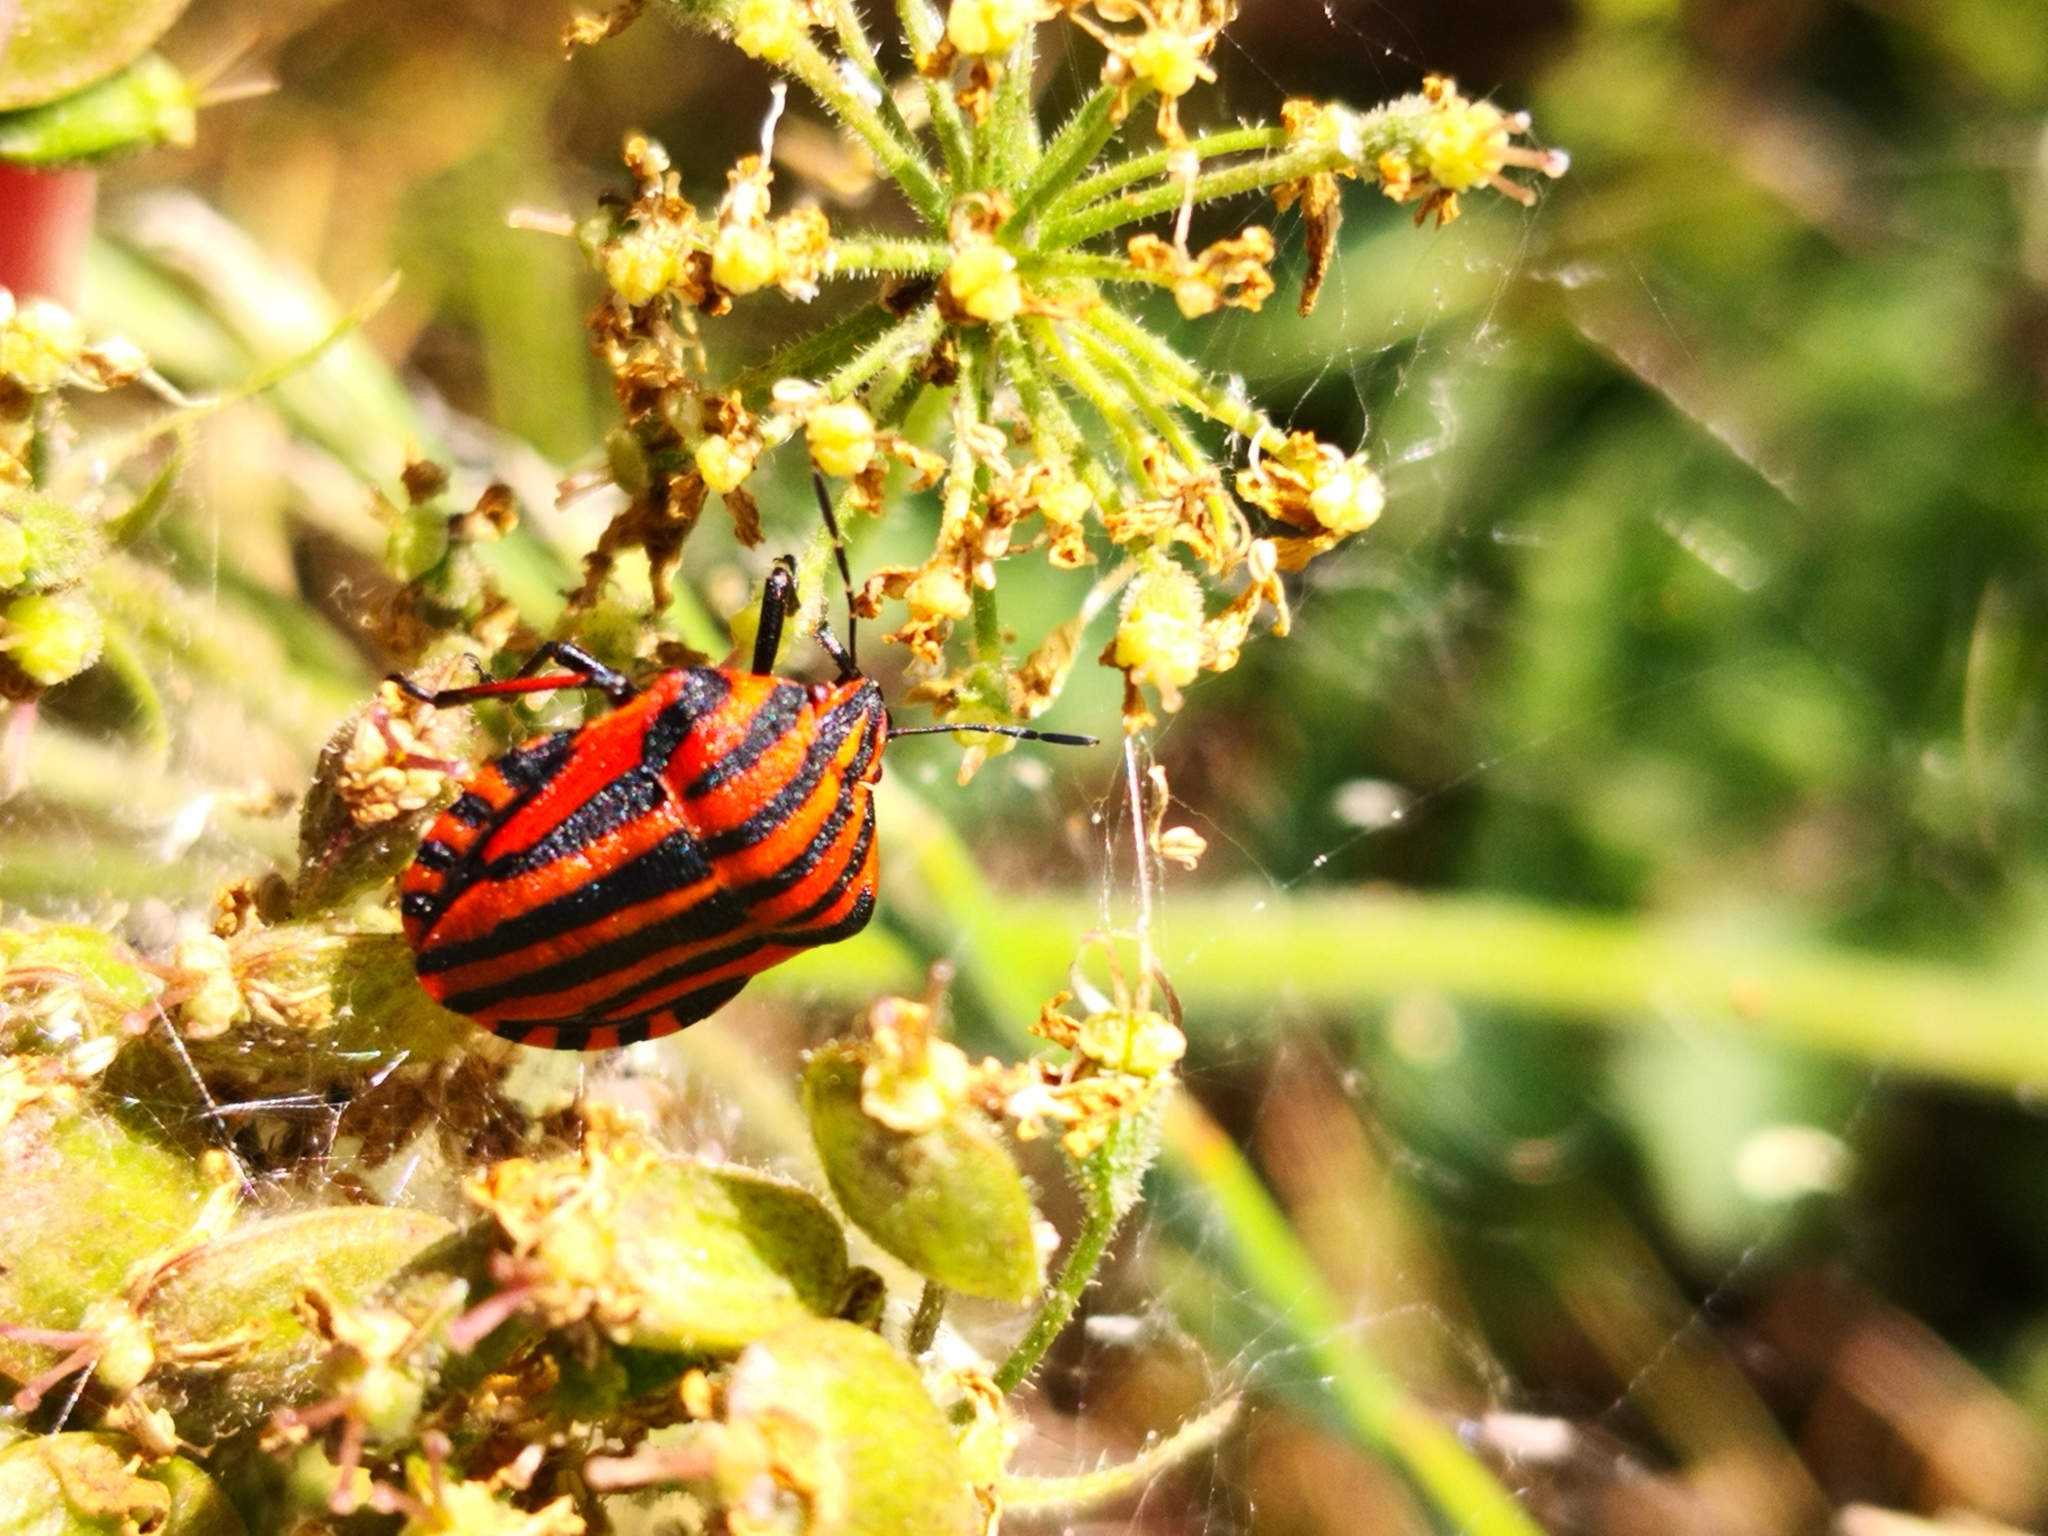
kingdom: Animalia
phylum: Arthropoda
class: Insecta
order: Hemiptera
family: Pentatomidae
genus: Graphosoma
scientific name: Graphosoma italicum
